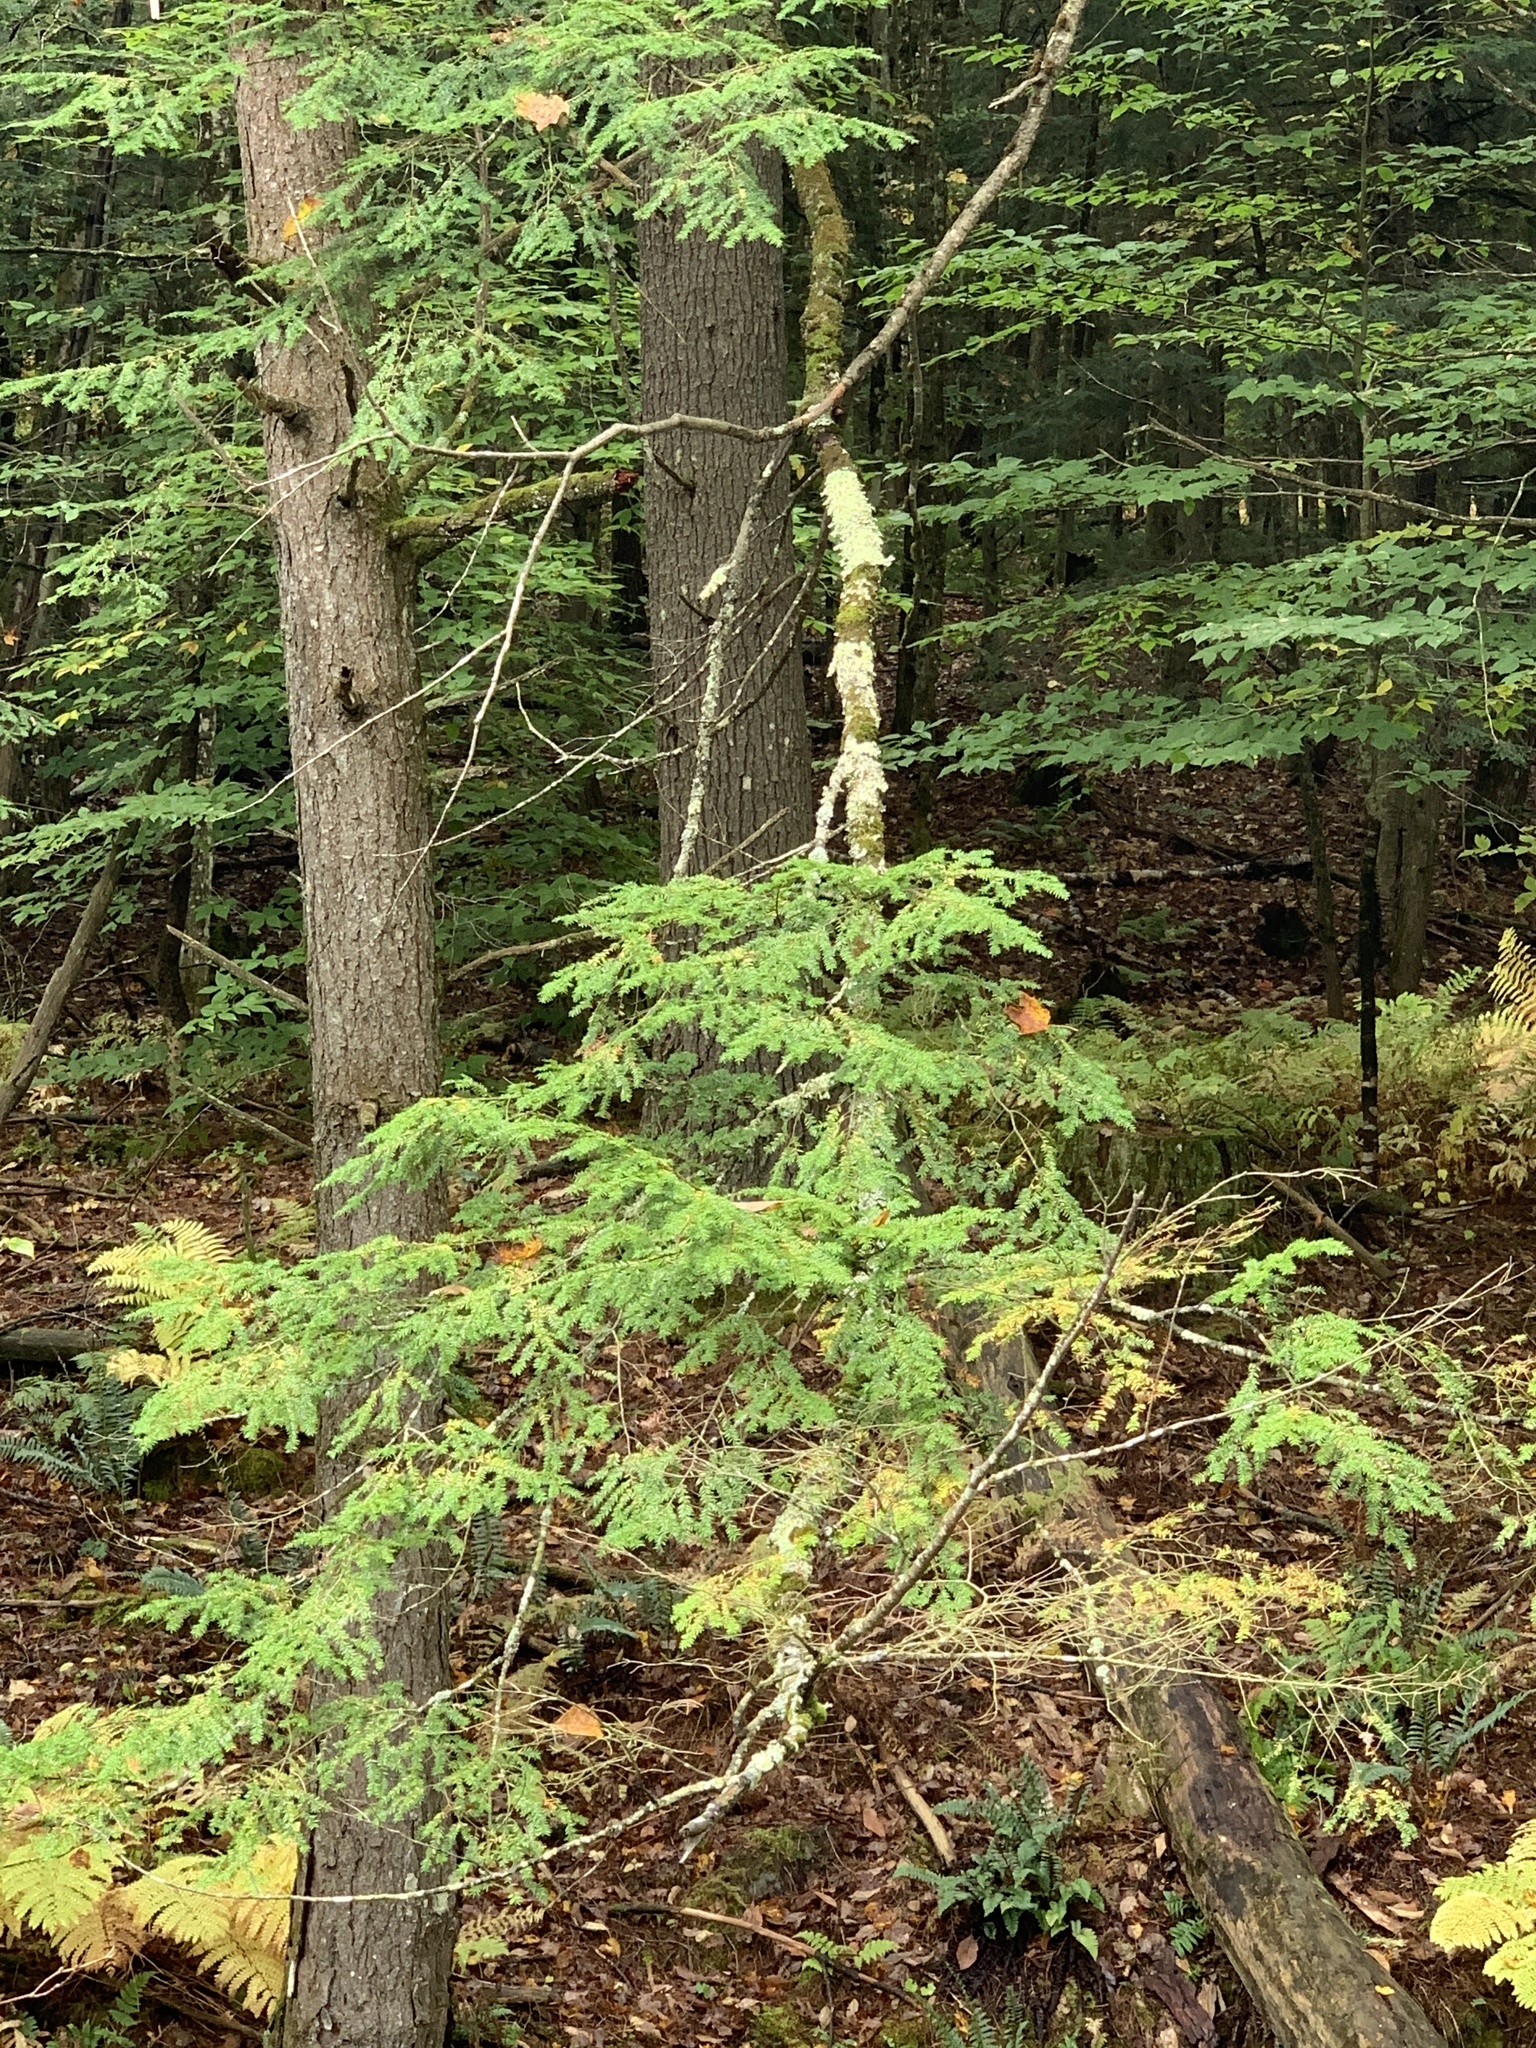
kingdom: Plantae
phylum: Tracheophyta
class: Pinopsida
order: Pinales
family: Pinaceae
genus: Tsuga
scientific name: Tsuga canadensis
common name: Eastern hemlock
